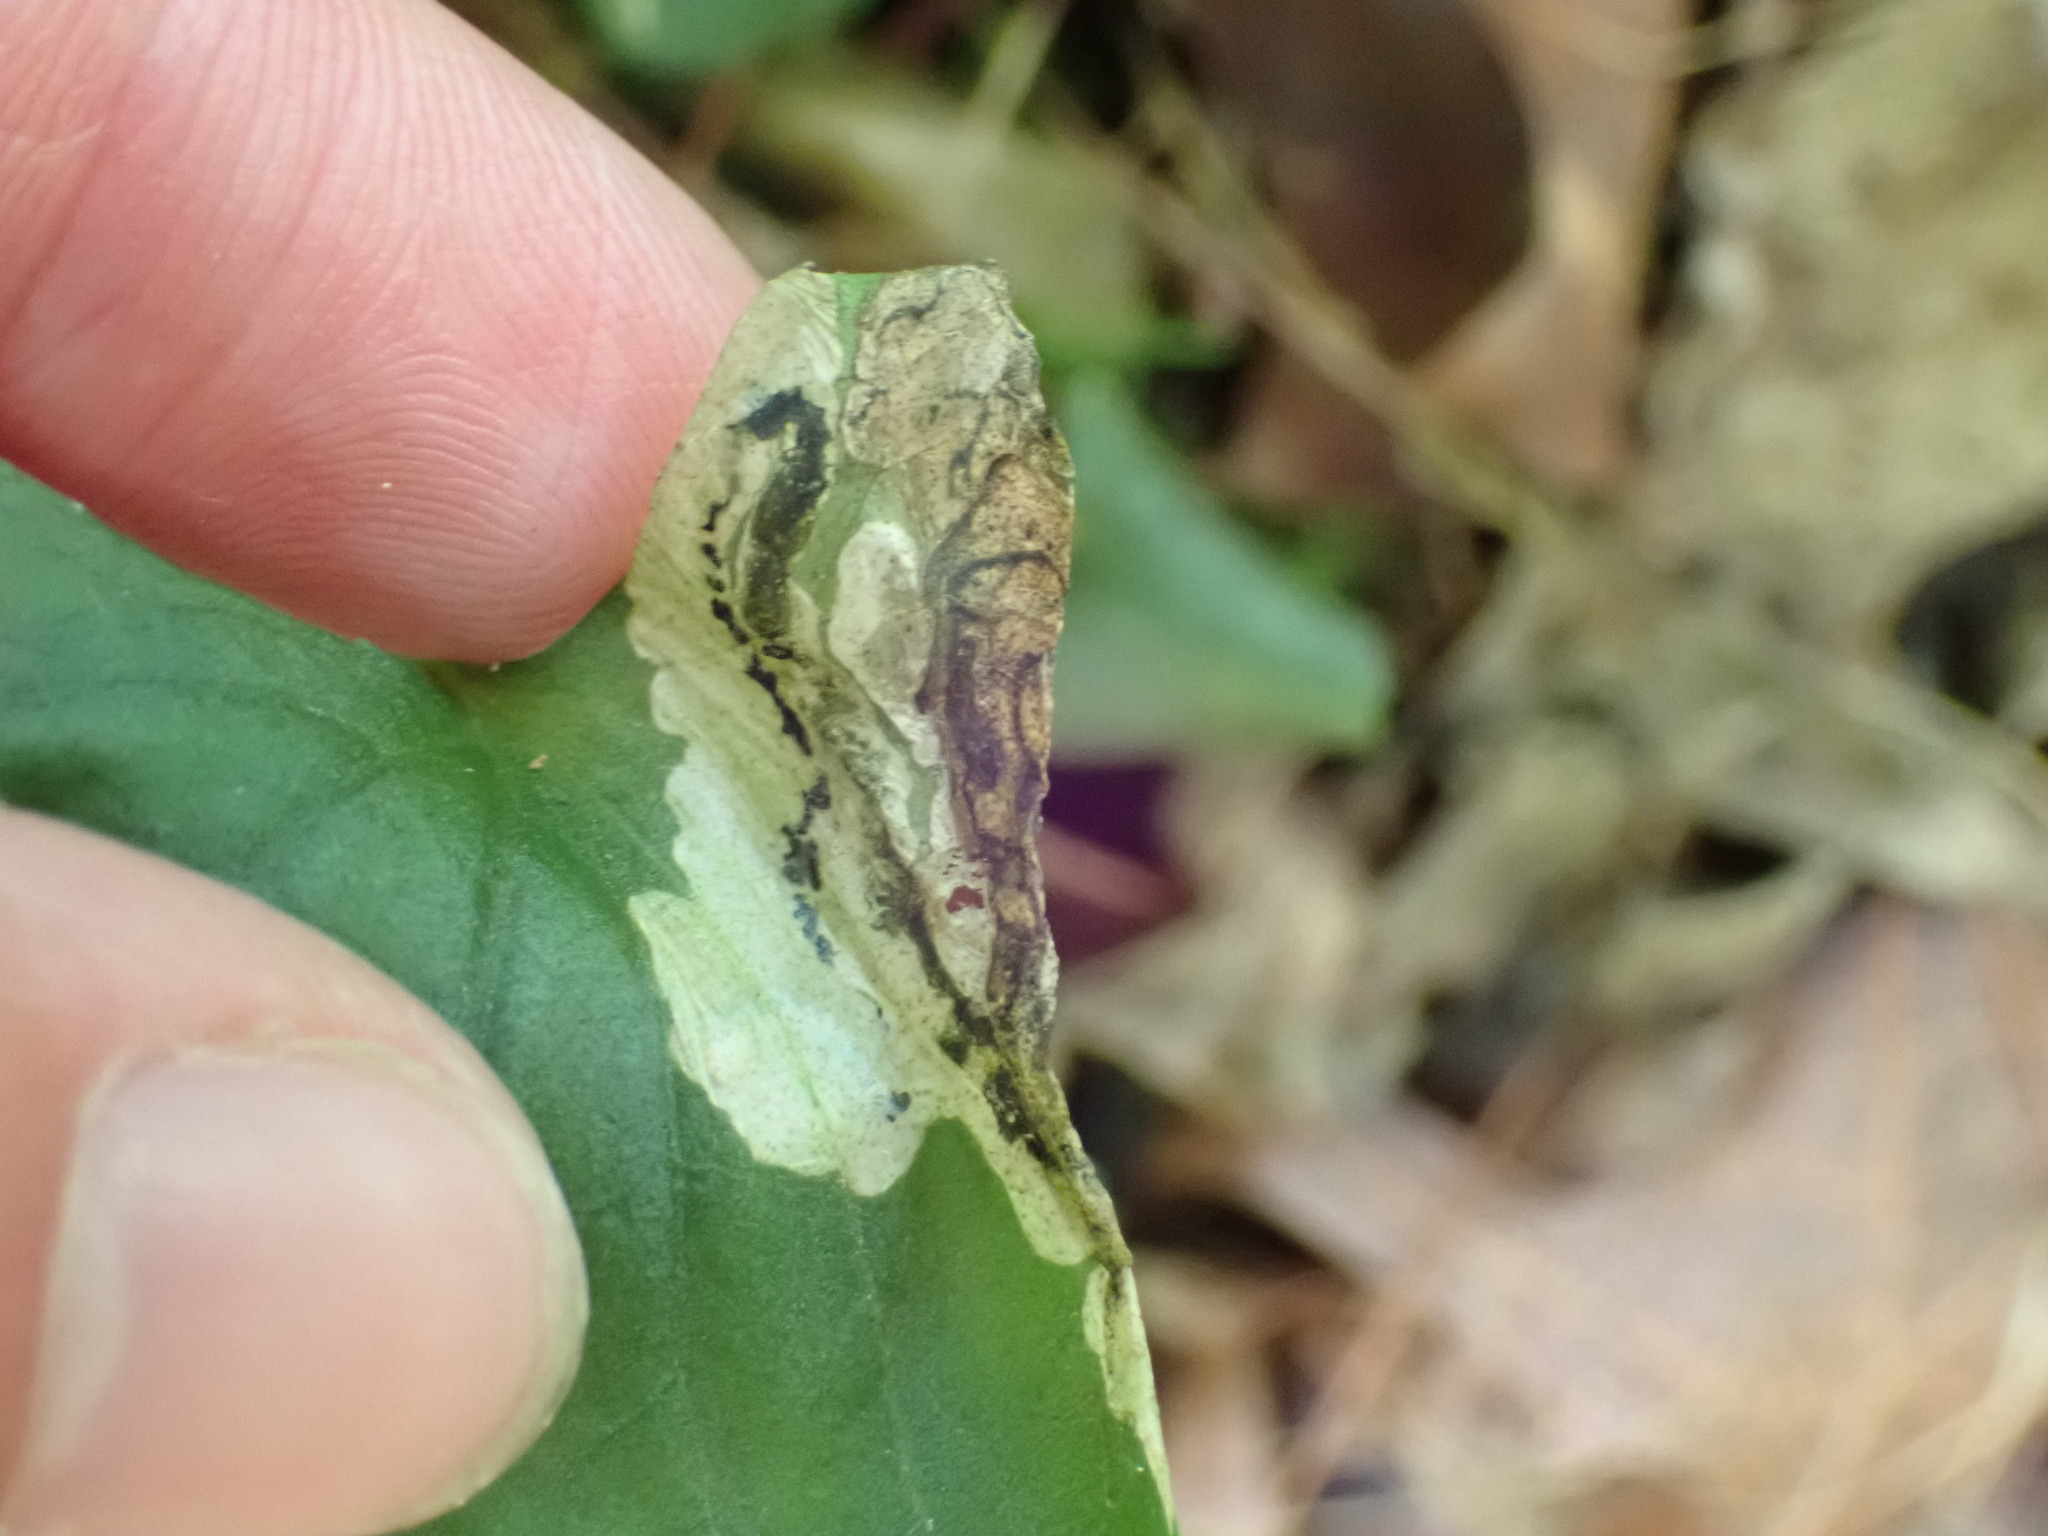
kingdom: Animalia
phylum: Arthropoda
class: Insecta
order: Hymenoptera
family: Tenthredinidae
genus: Nefusa
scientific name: Nefusa ambigua
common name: Violet leafmining sawfly
